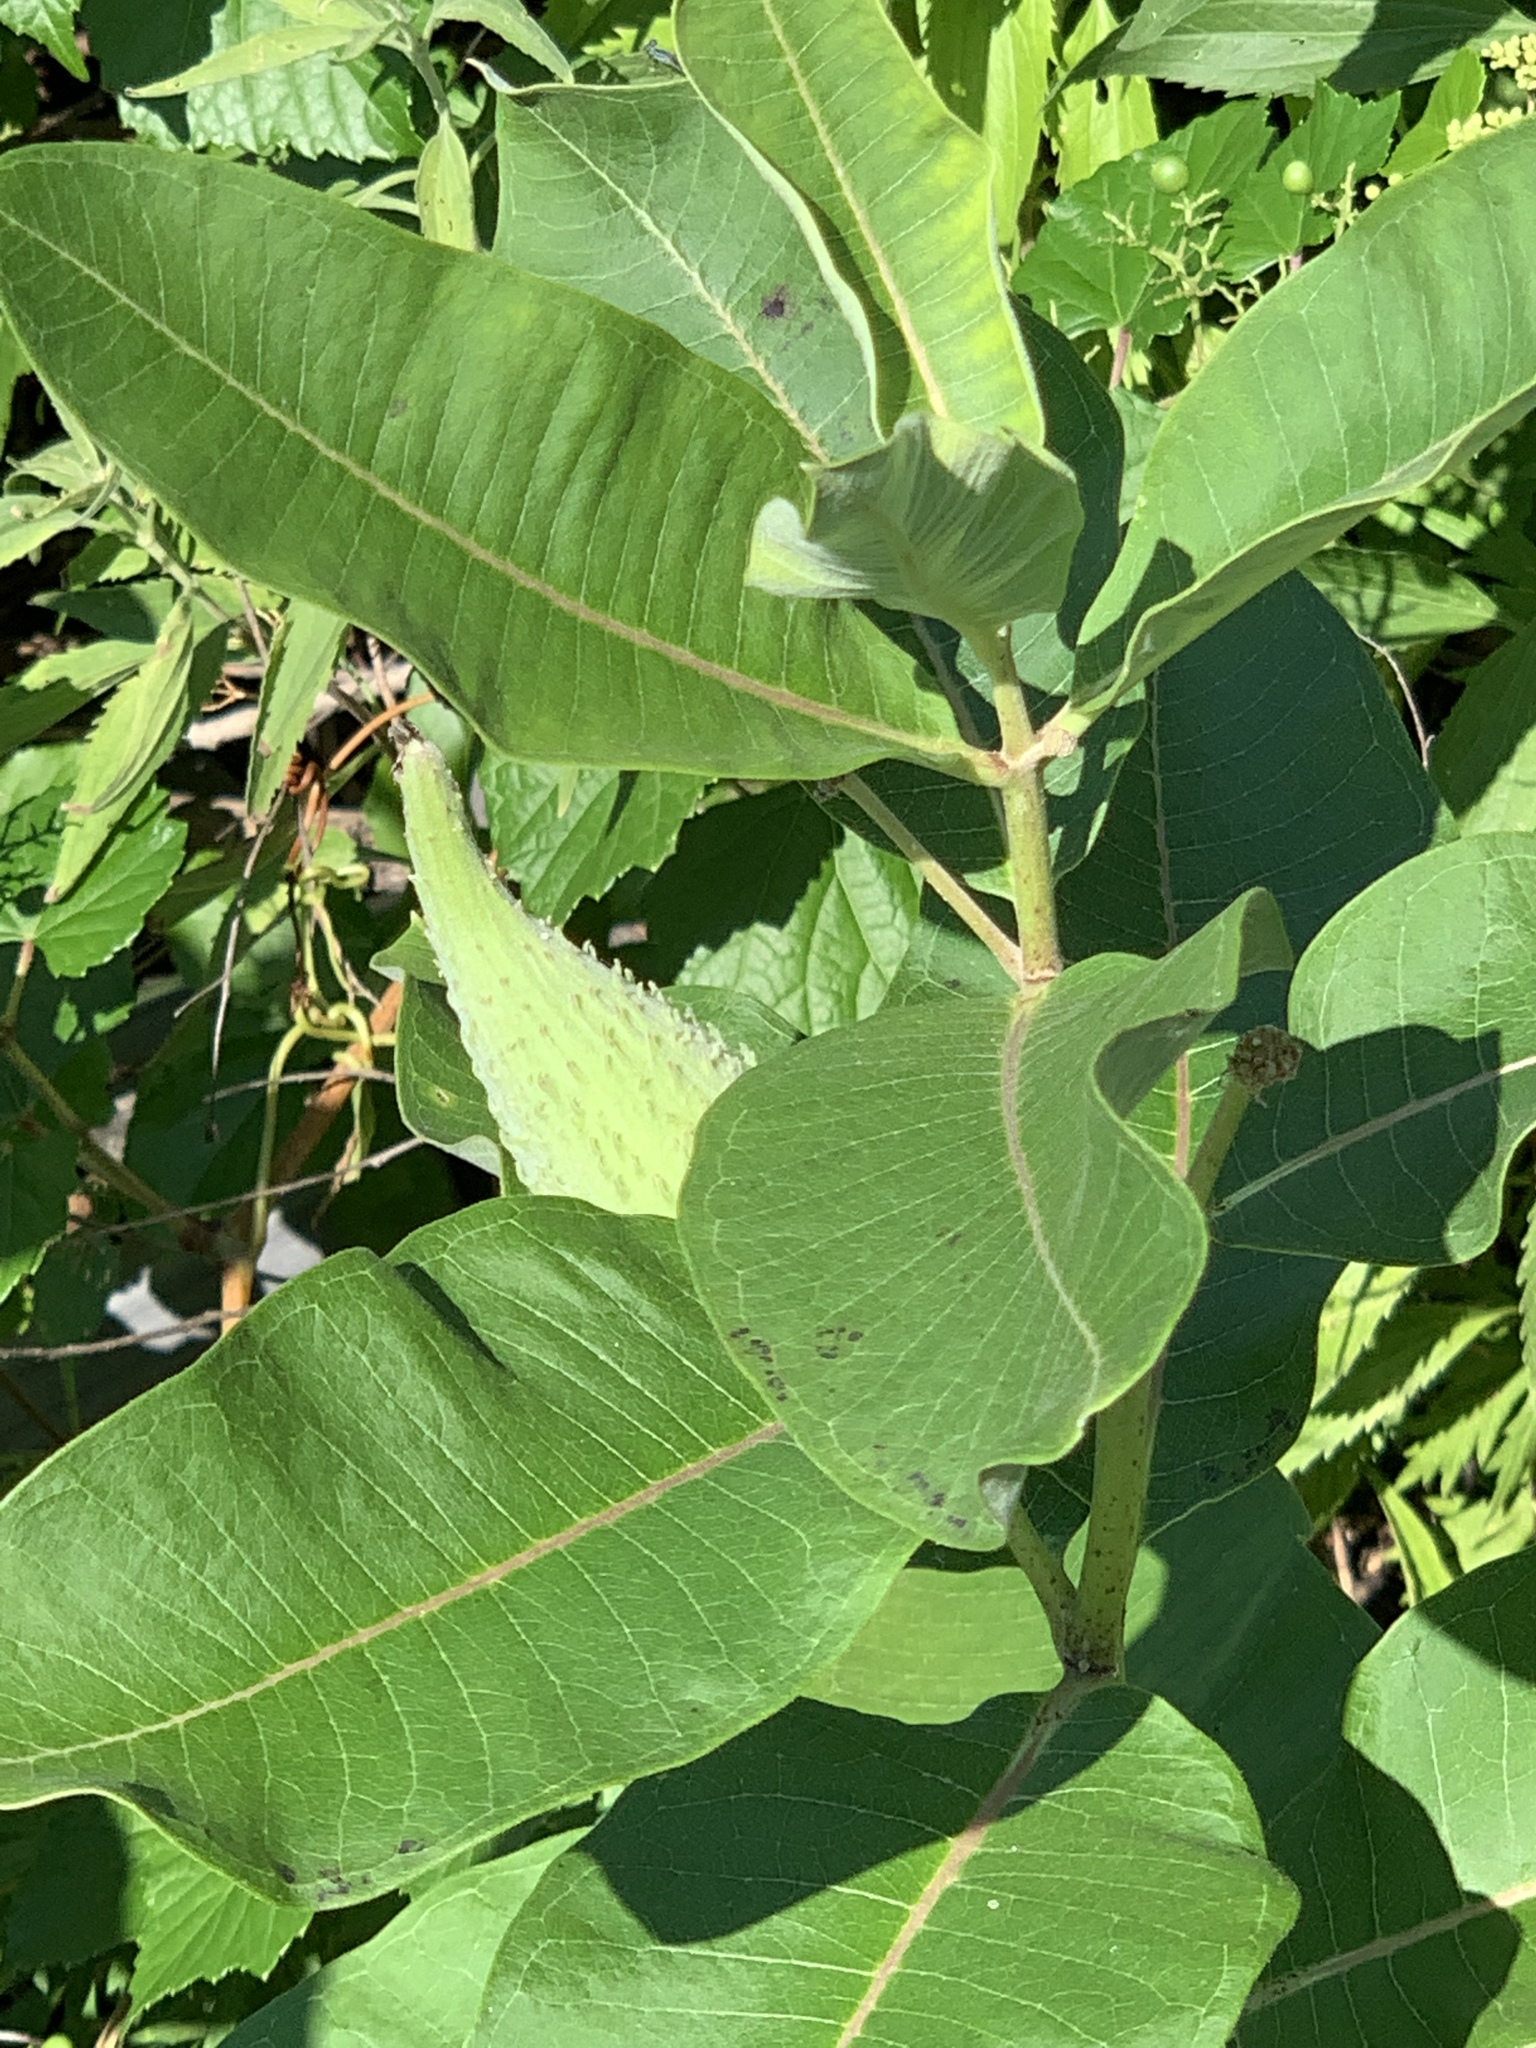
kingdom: Plantae
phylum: Tracheophyta
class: Magnoliopsida
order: Gentianales
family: Apocynaceae
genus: Asclepias
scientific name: Asclepias syriaca
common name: Common milkweed
